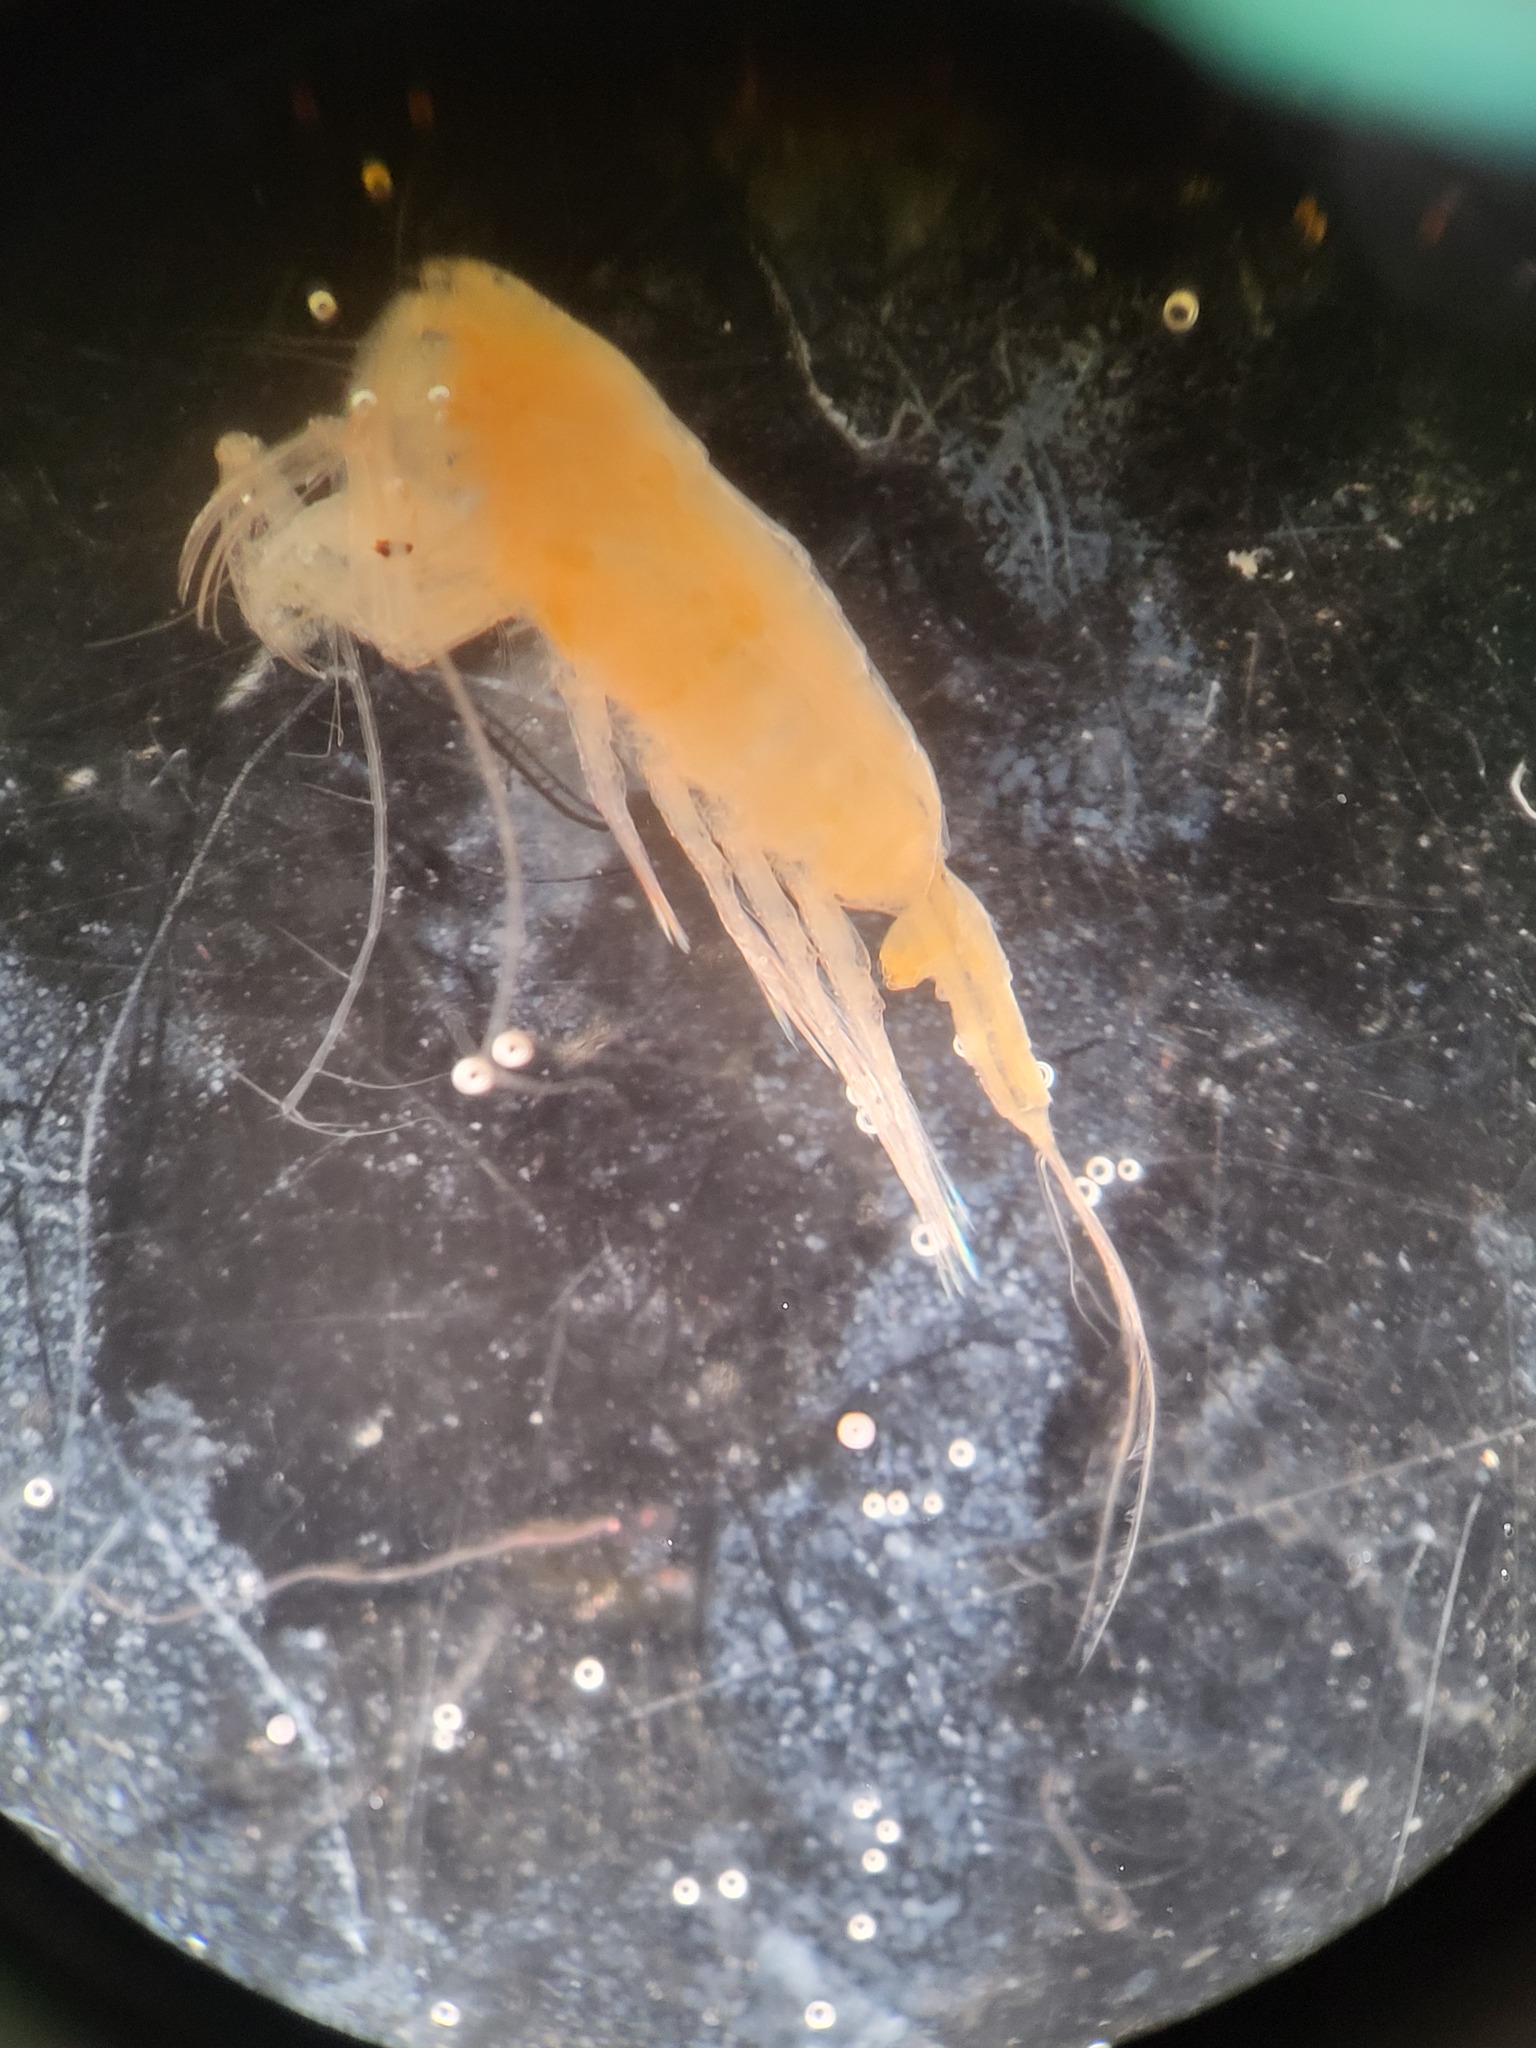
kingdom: Animalia
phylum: Arthropoda
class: Copepoda
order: Calanoida
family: Euchaetidae
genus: Paraeuchaeta
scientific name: Paraeuchaeta glacialis
